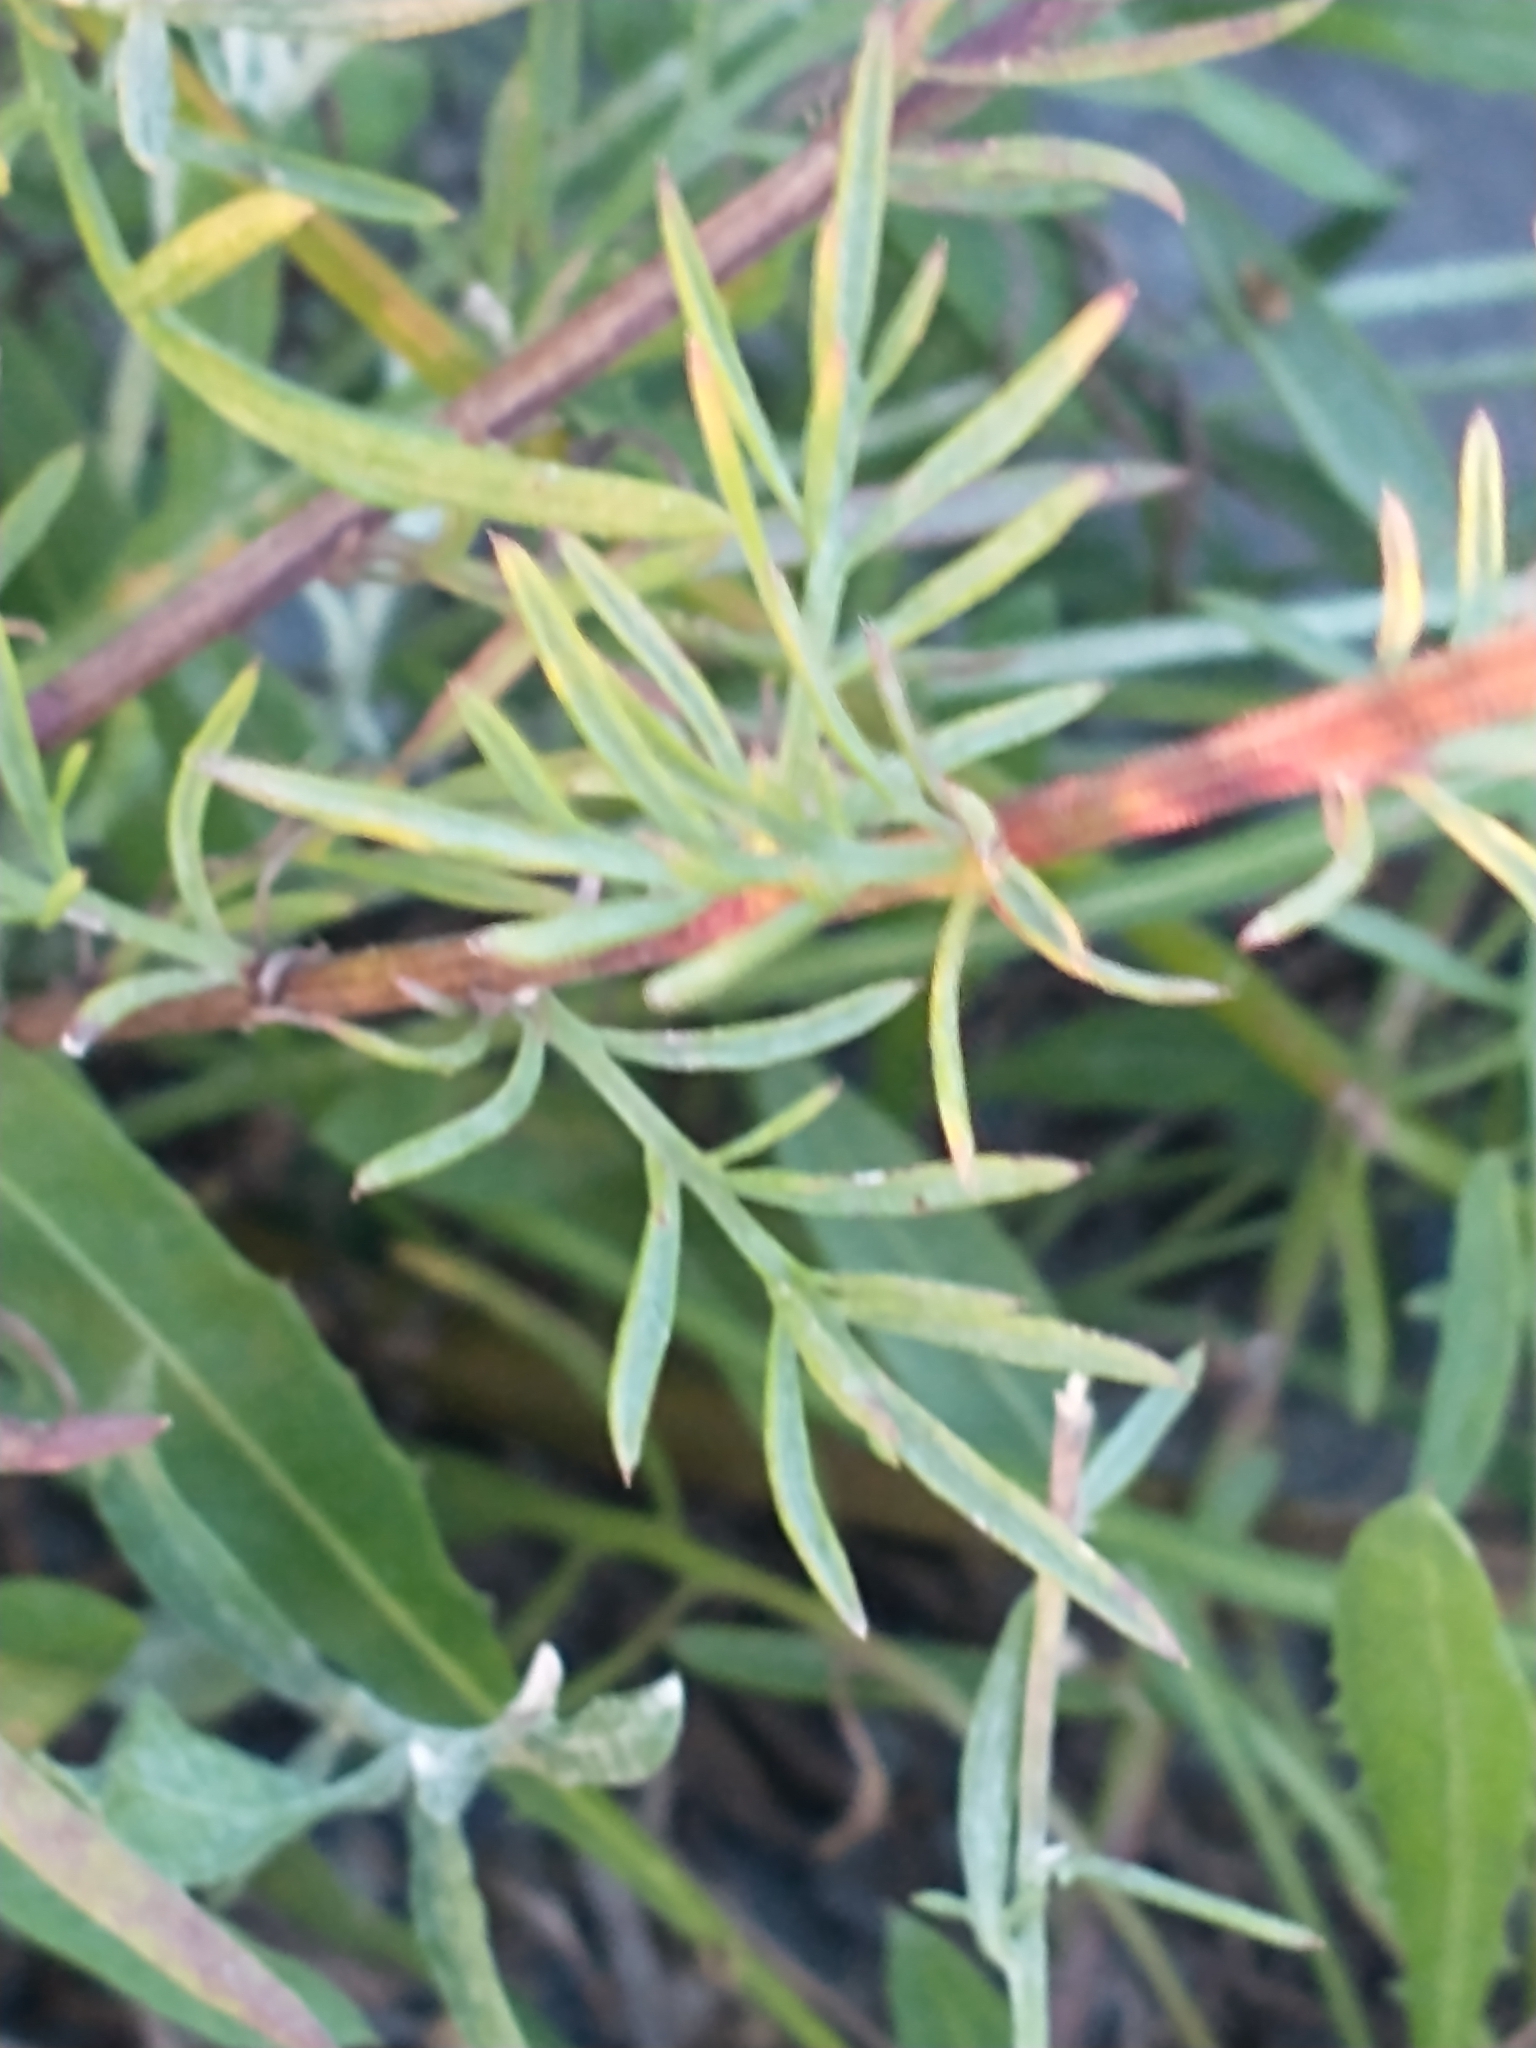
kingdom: Plantae
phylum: Tracheophyta
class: Magnoliopsida
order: Asterales
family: Asteraceae
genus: Centaurea
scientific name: Centaurea stoebe
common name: Spotted knapweed
